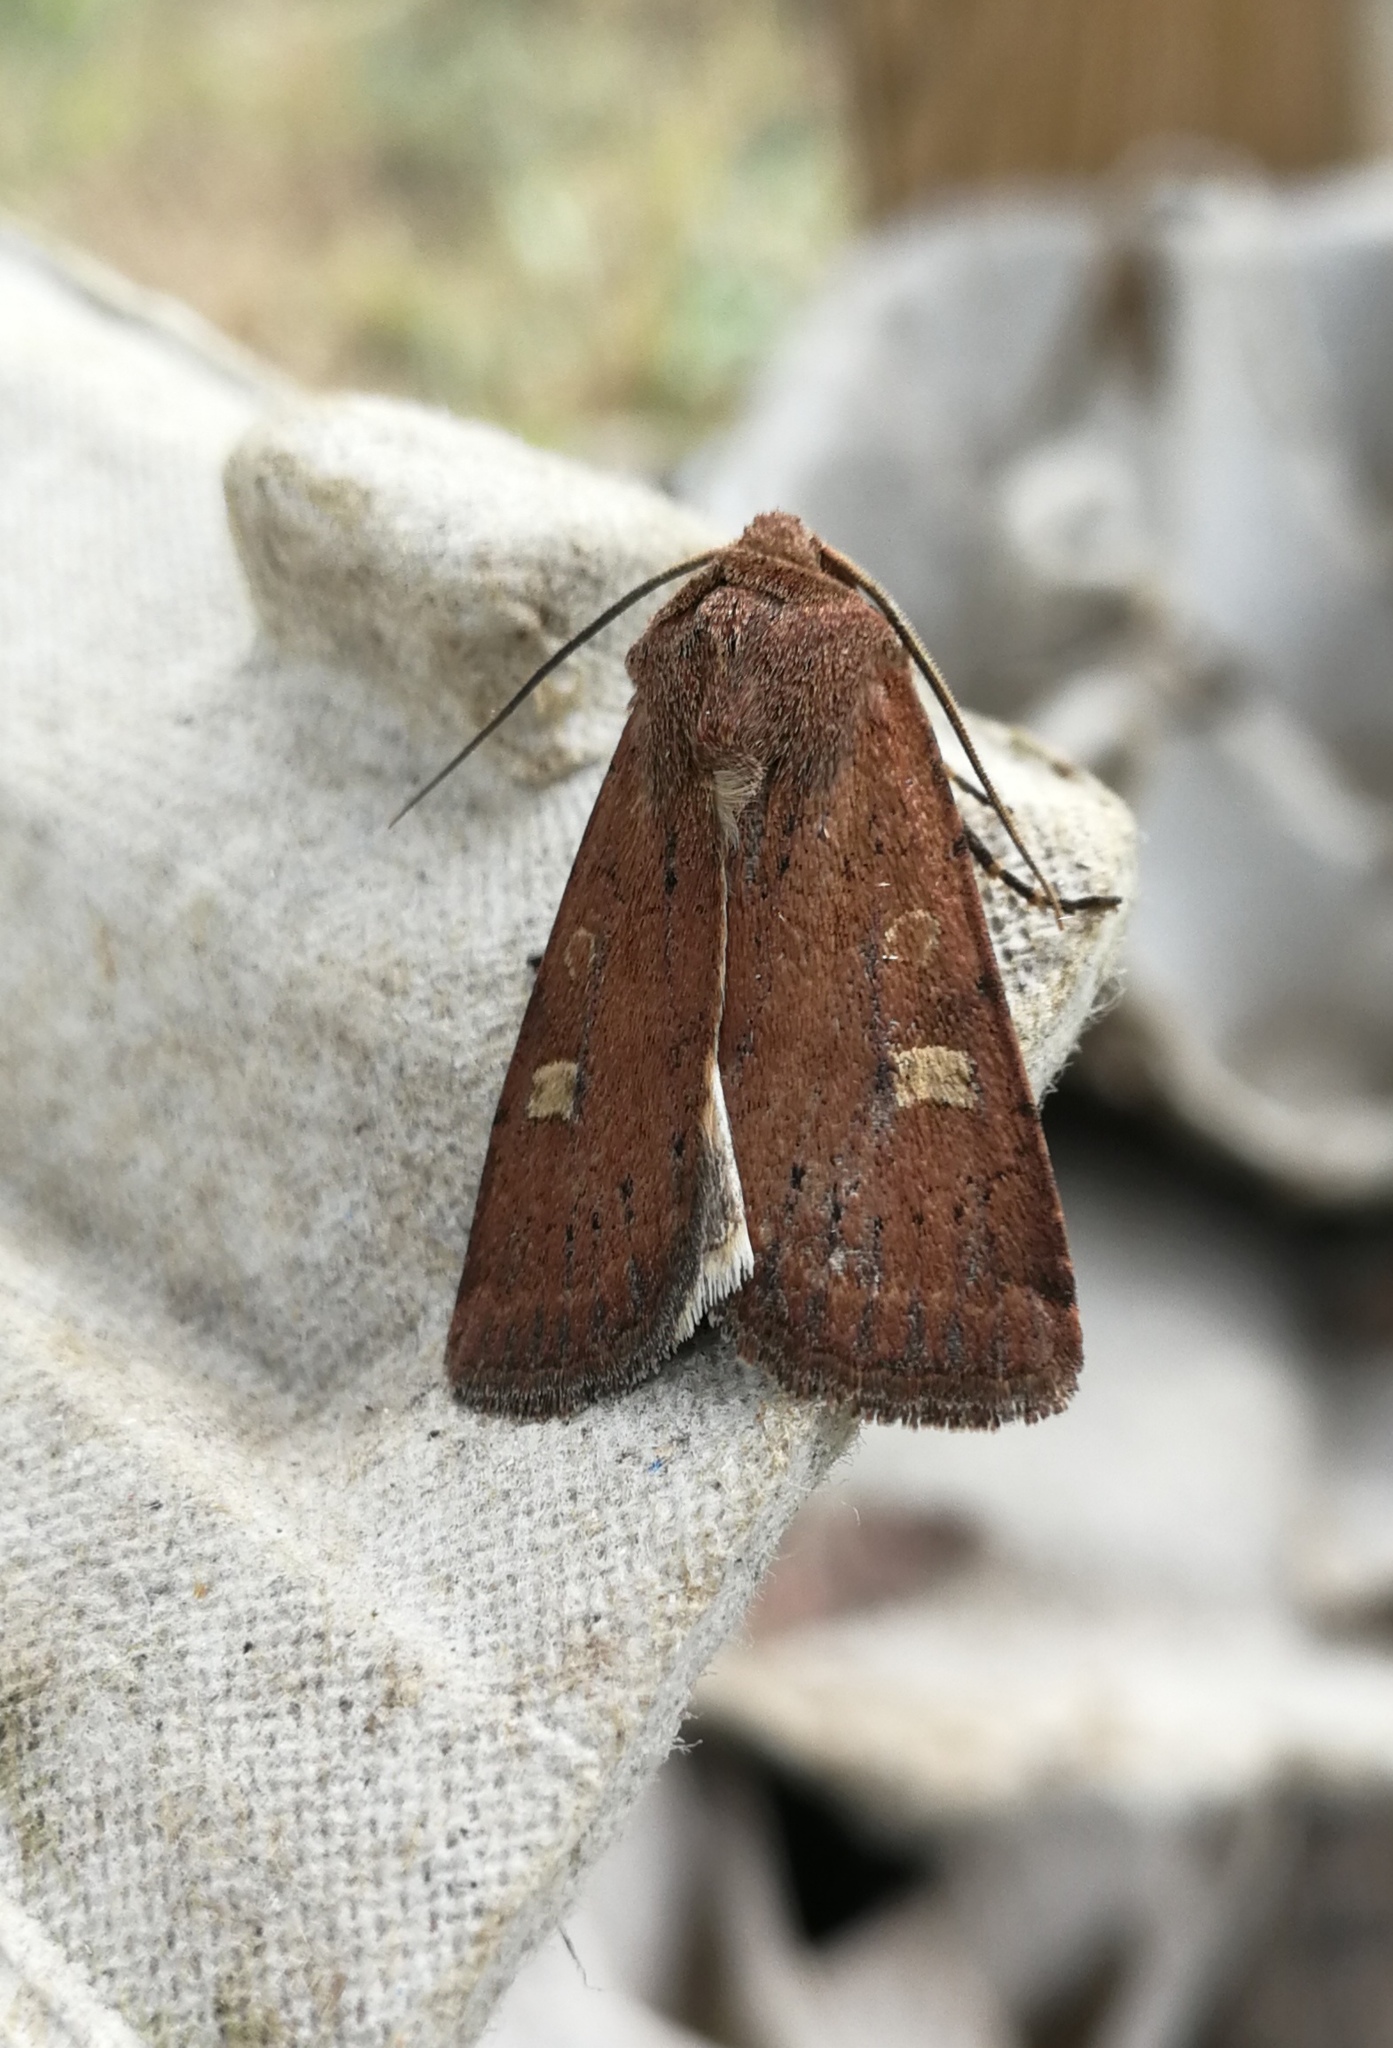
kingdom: Animalia
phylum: Arthropoda
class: Insecta
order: Lepidoptera
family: Noctuidae
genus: Xestia
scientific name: Xestia xanthographa
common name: Square-spot rustic
